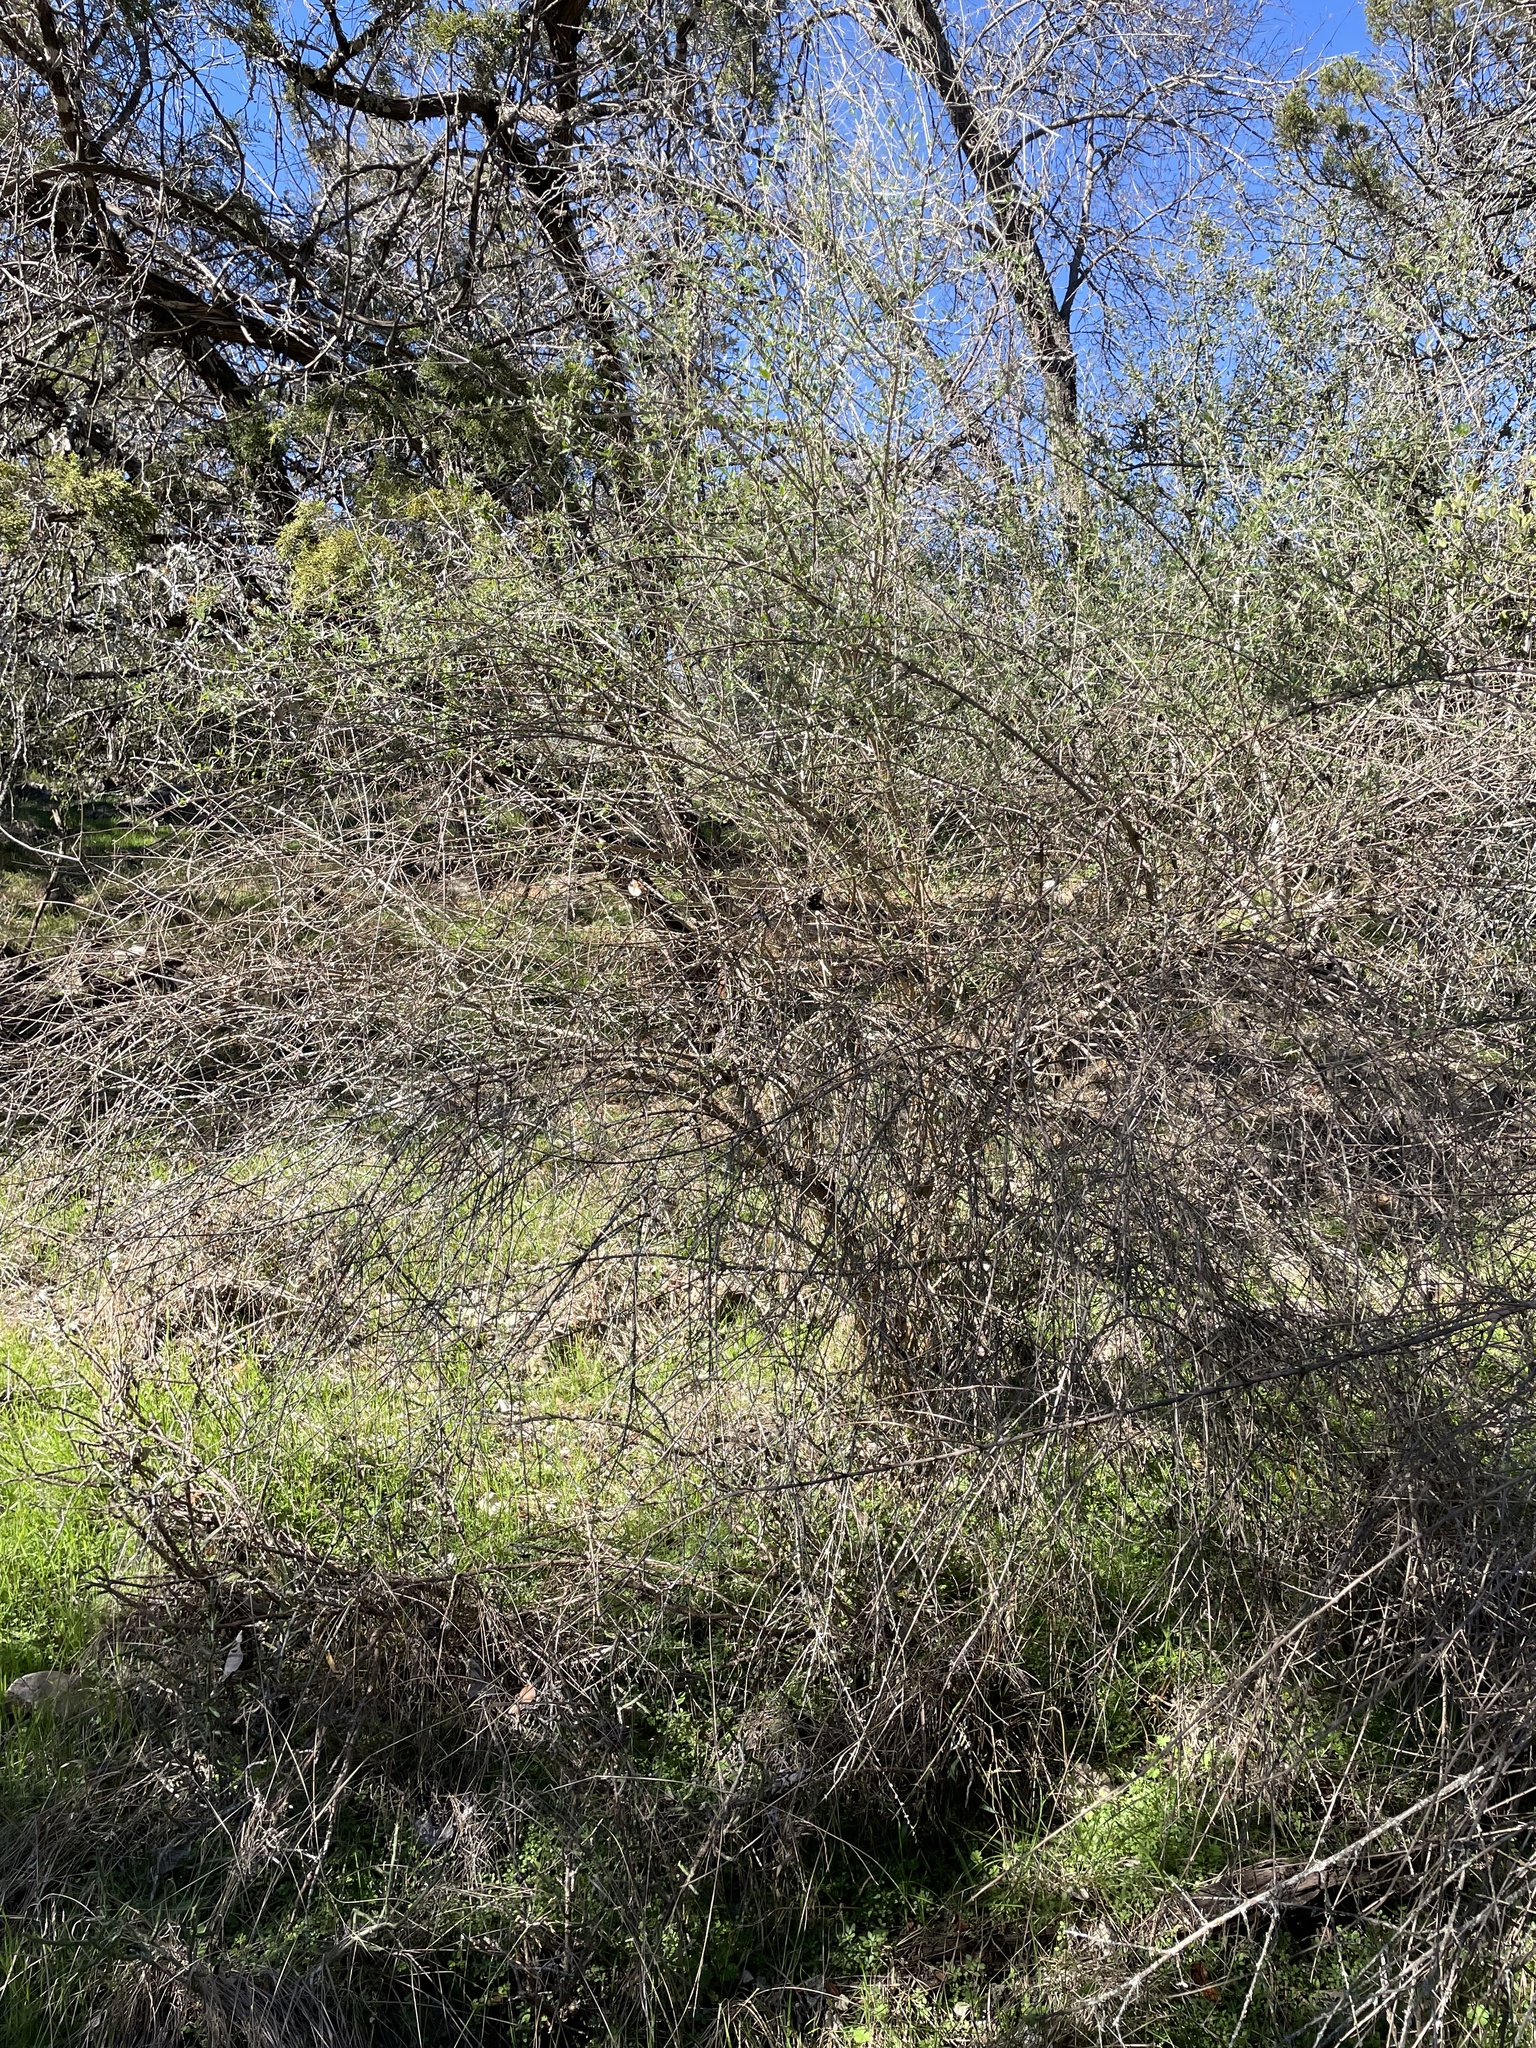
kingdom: Plantae
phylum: Tracheophyta
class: Magnoliopsida
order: Lamiales
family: Verbenaceae
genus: Aloysia
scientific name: Aloysia gratissima
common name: Common bee-brush
